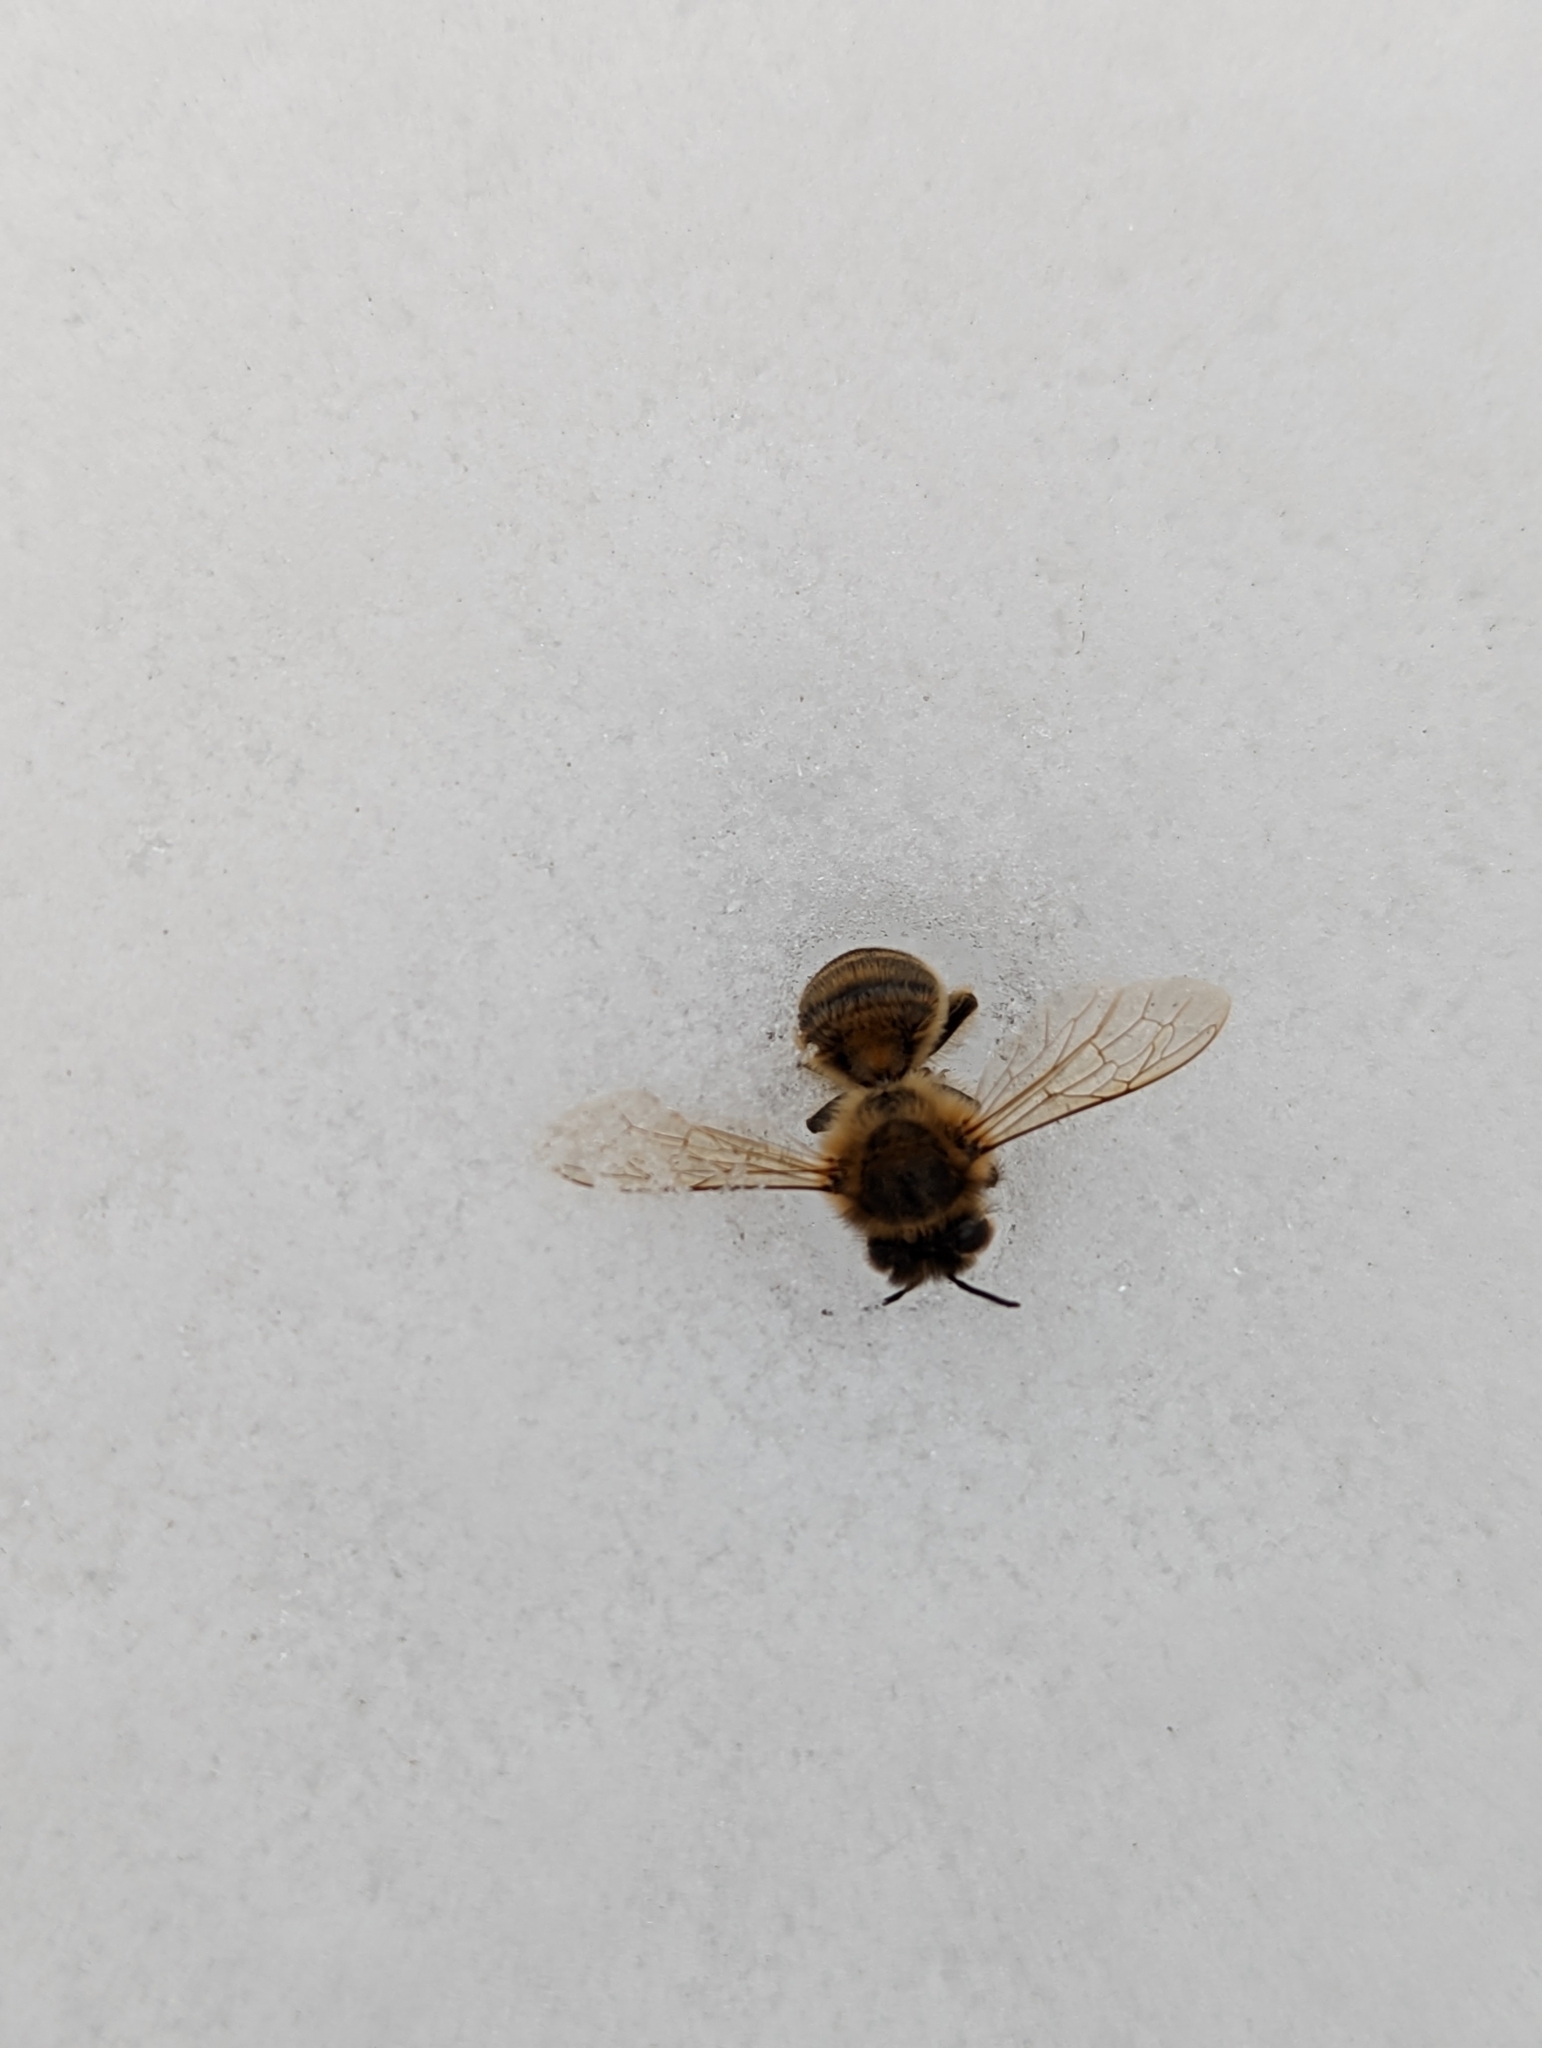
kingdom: Animalia
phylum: Arthropoda
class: Insecta
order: Hymenoptera
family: Apidae
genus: Apis
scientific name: Apis mellifera
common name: Honey bee
